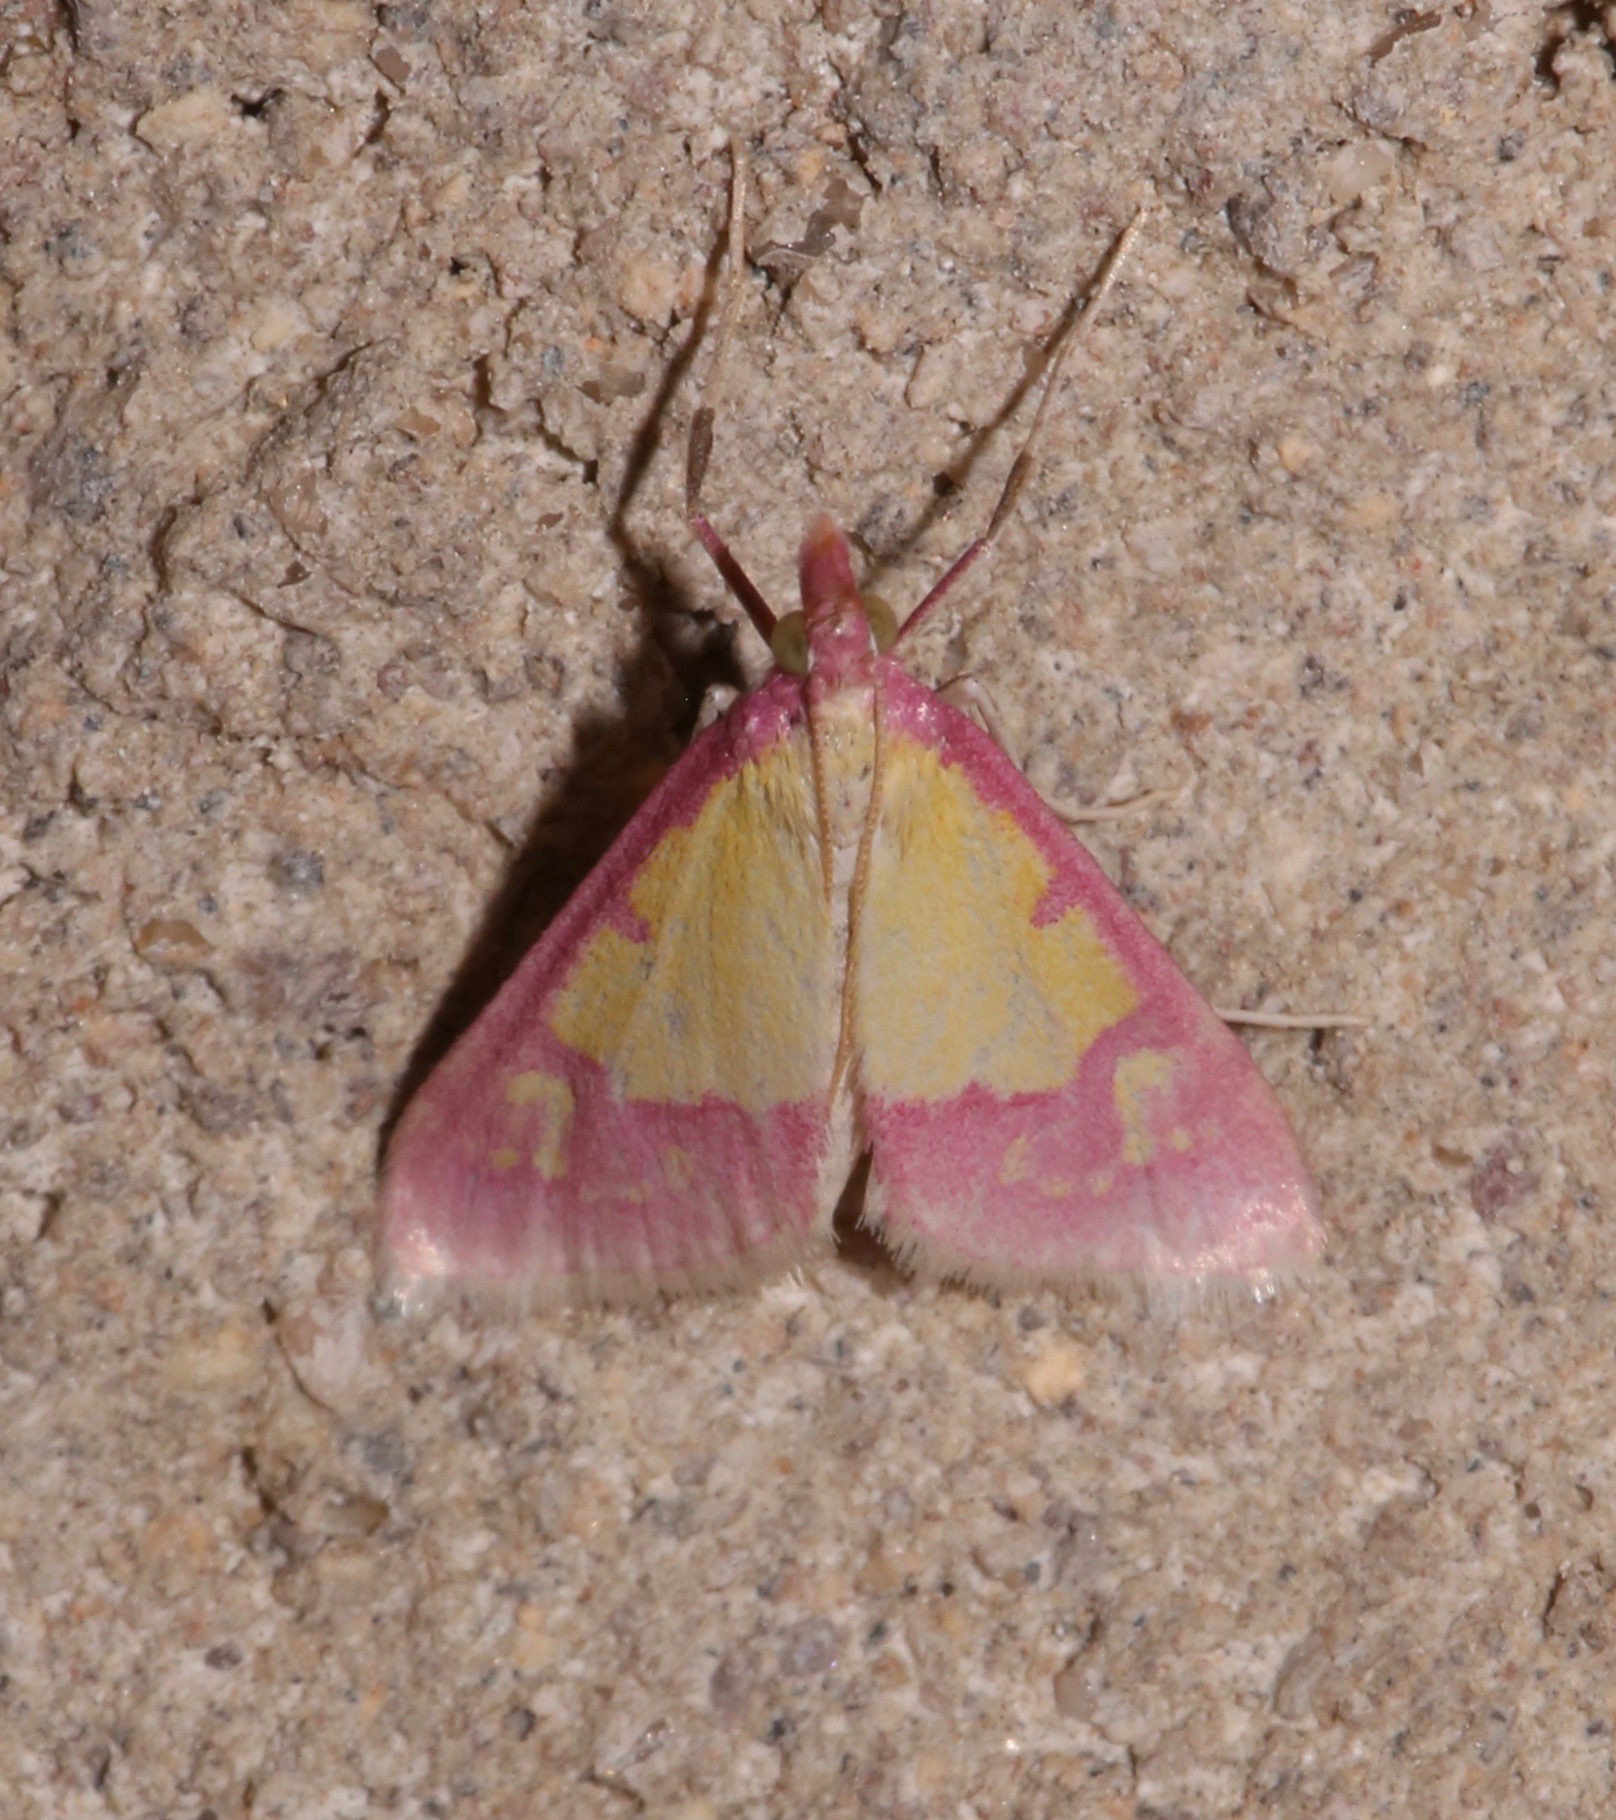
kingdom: Animalia
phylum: Arthropoda
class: Insecta
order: Lepidoptera
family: Crambidae
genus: Choristostigma
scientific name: Choristostigma roseopennalis
